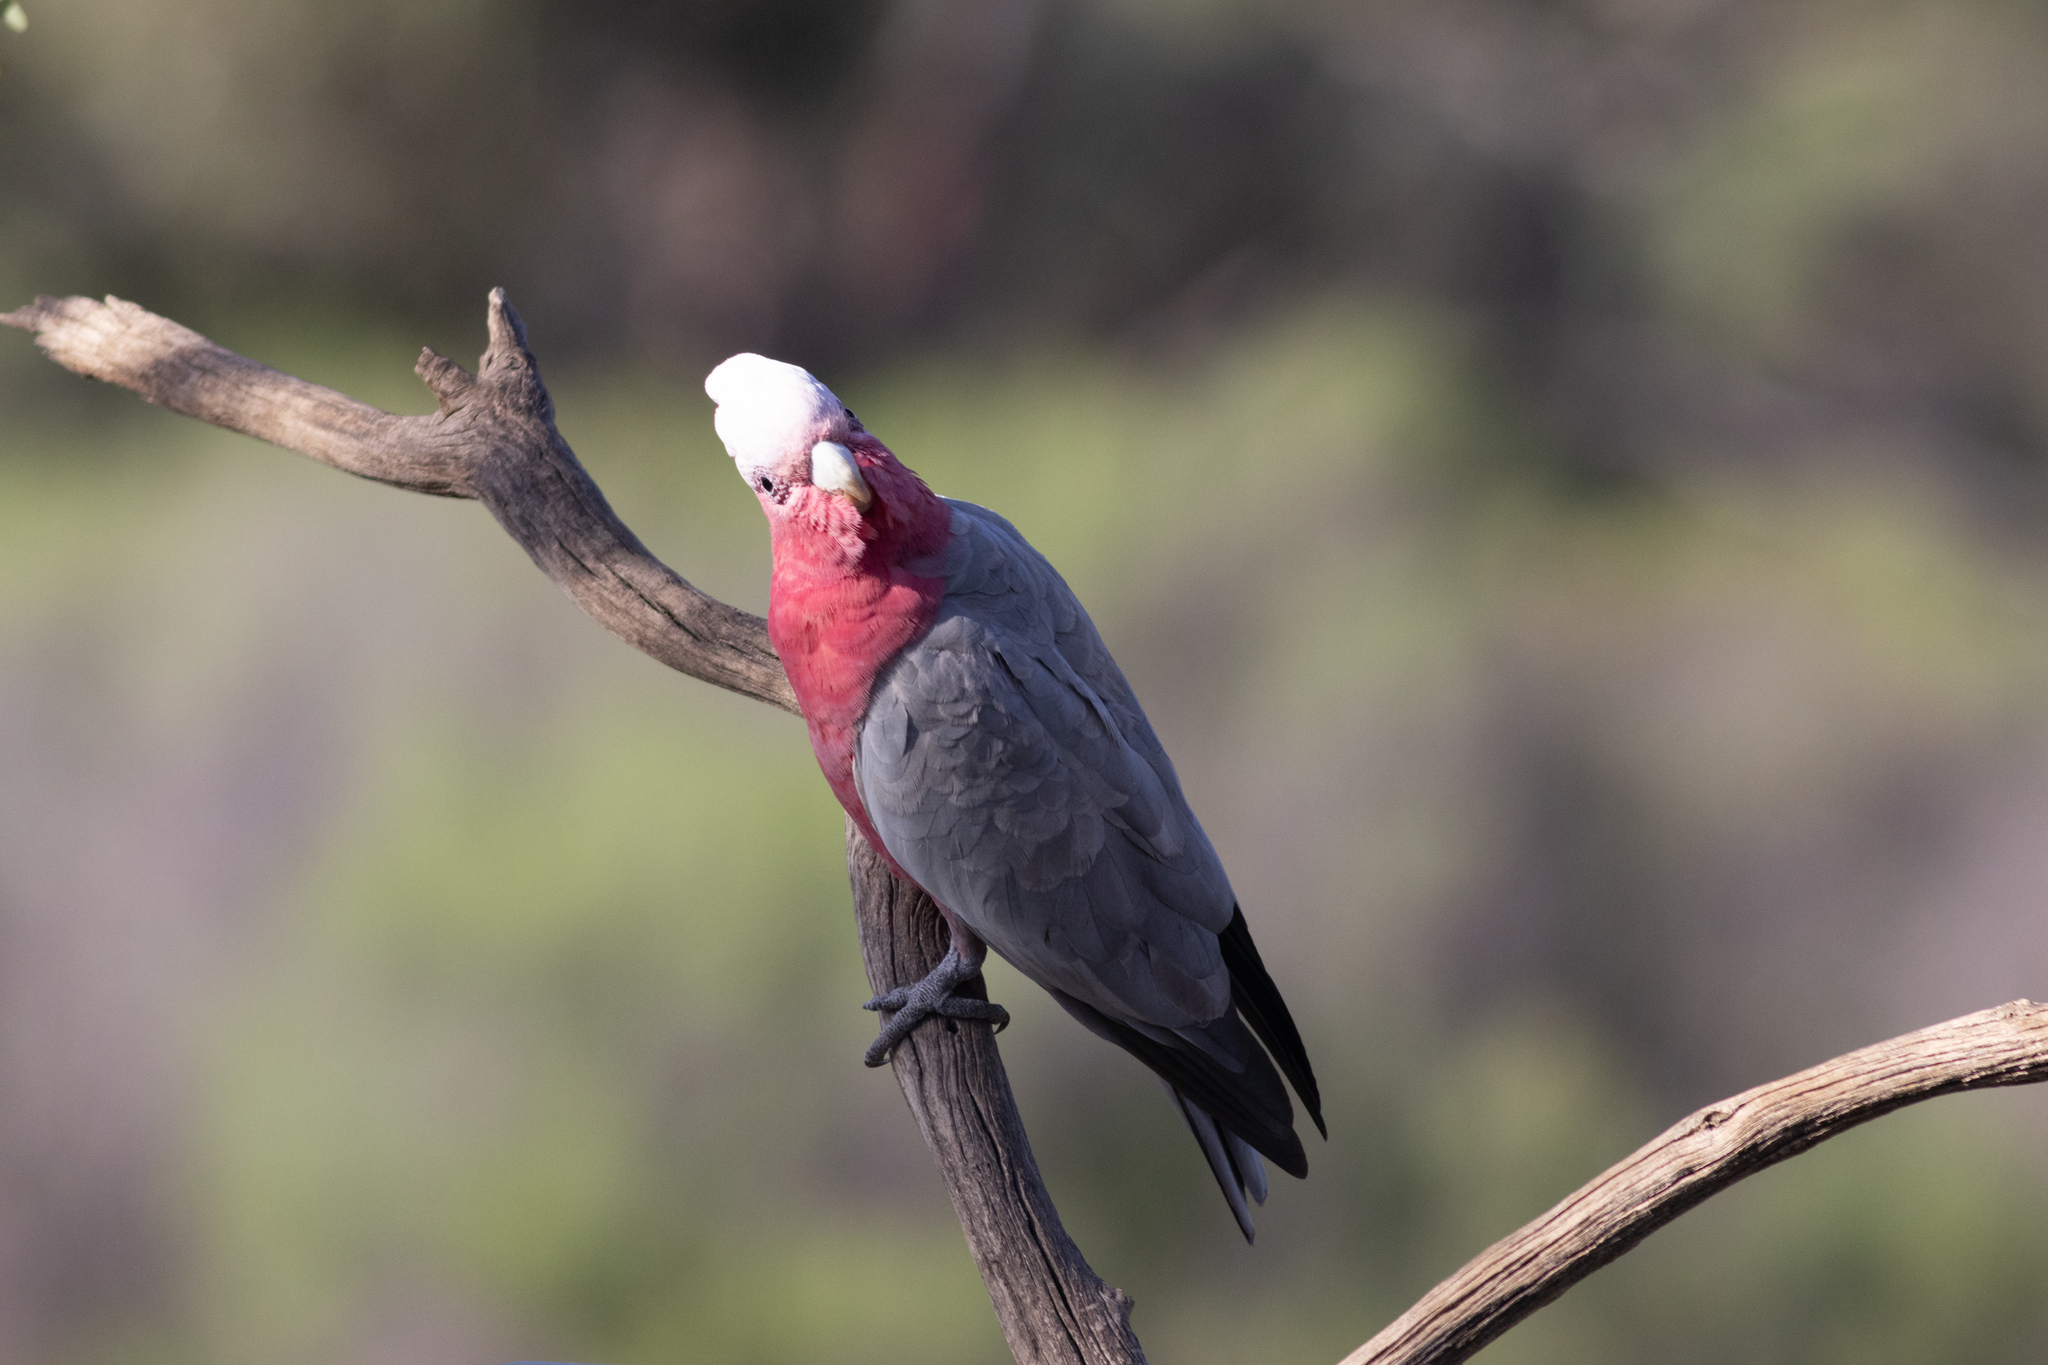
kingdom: Animalia
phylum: Chordata
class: Aves
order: Psittaciformes
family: Psittacidae
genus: Eolophus
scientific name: Eolophus roseicapilla
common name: Galah
